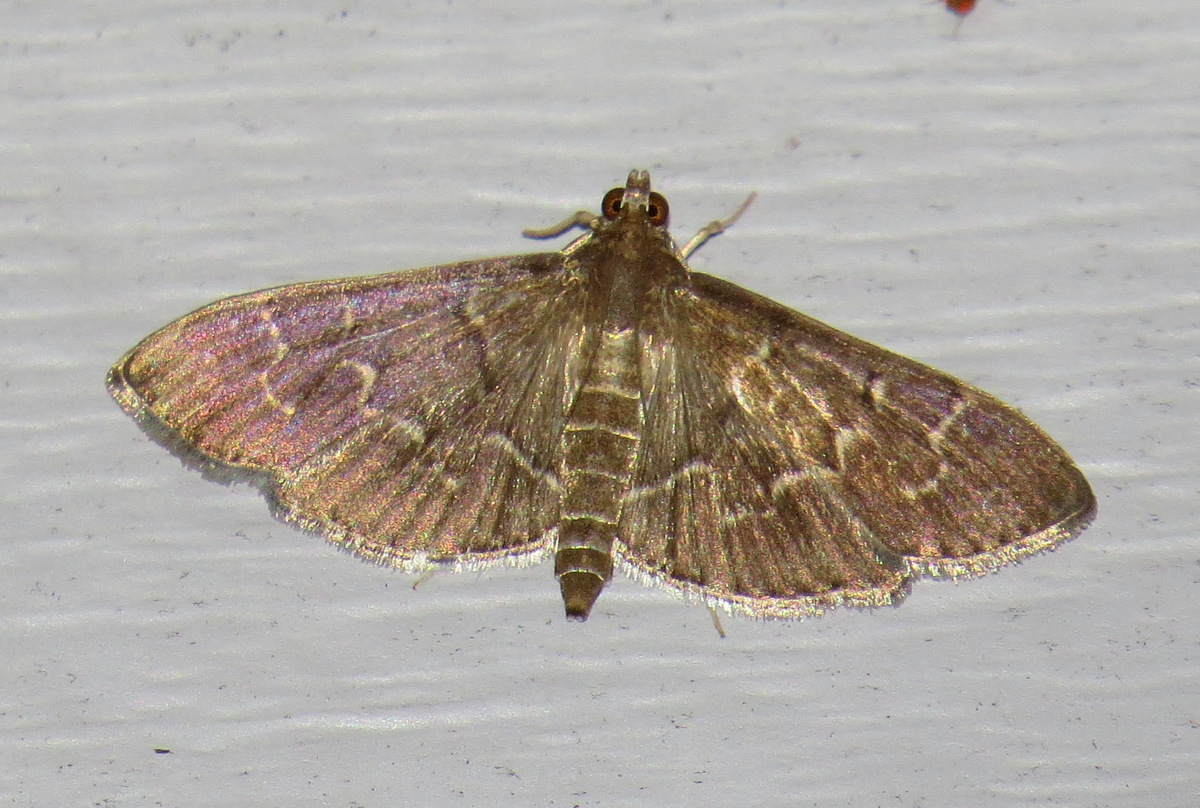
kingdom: Animalia
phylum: Arthropoda
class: Insecta
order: Lepidoptera
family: Crambidae
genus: Pilocrocis
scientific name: Pilocrocis ramentalis
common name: Scraped pilocrocis
